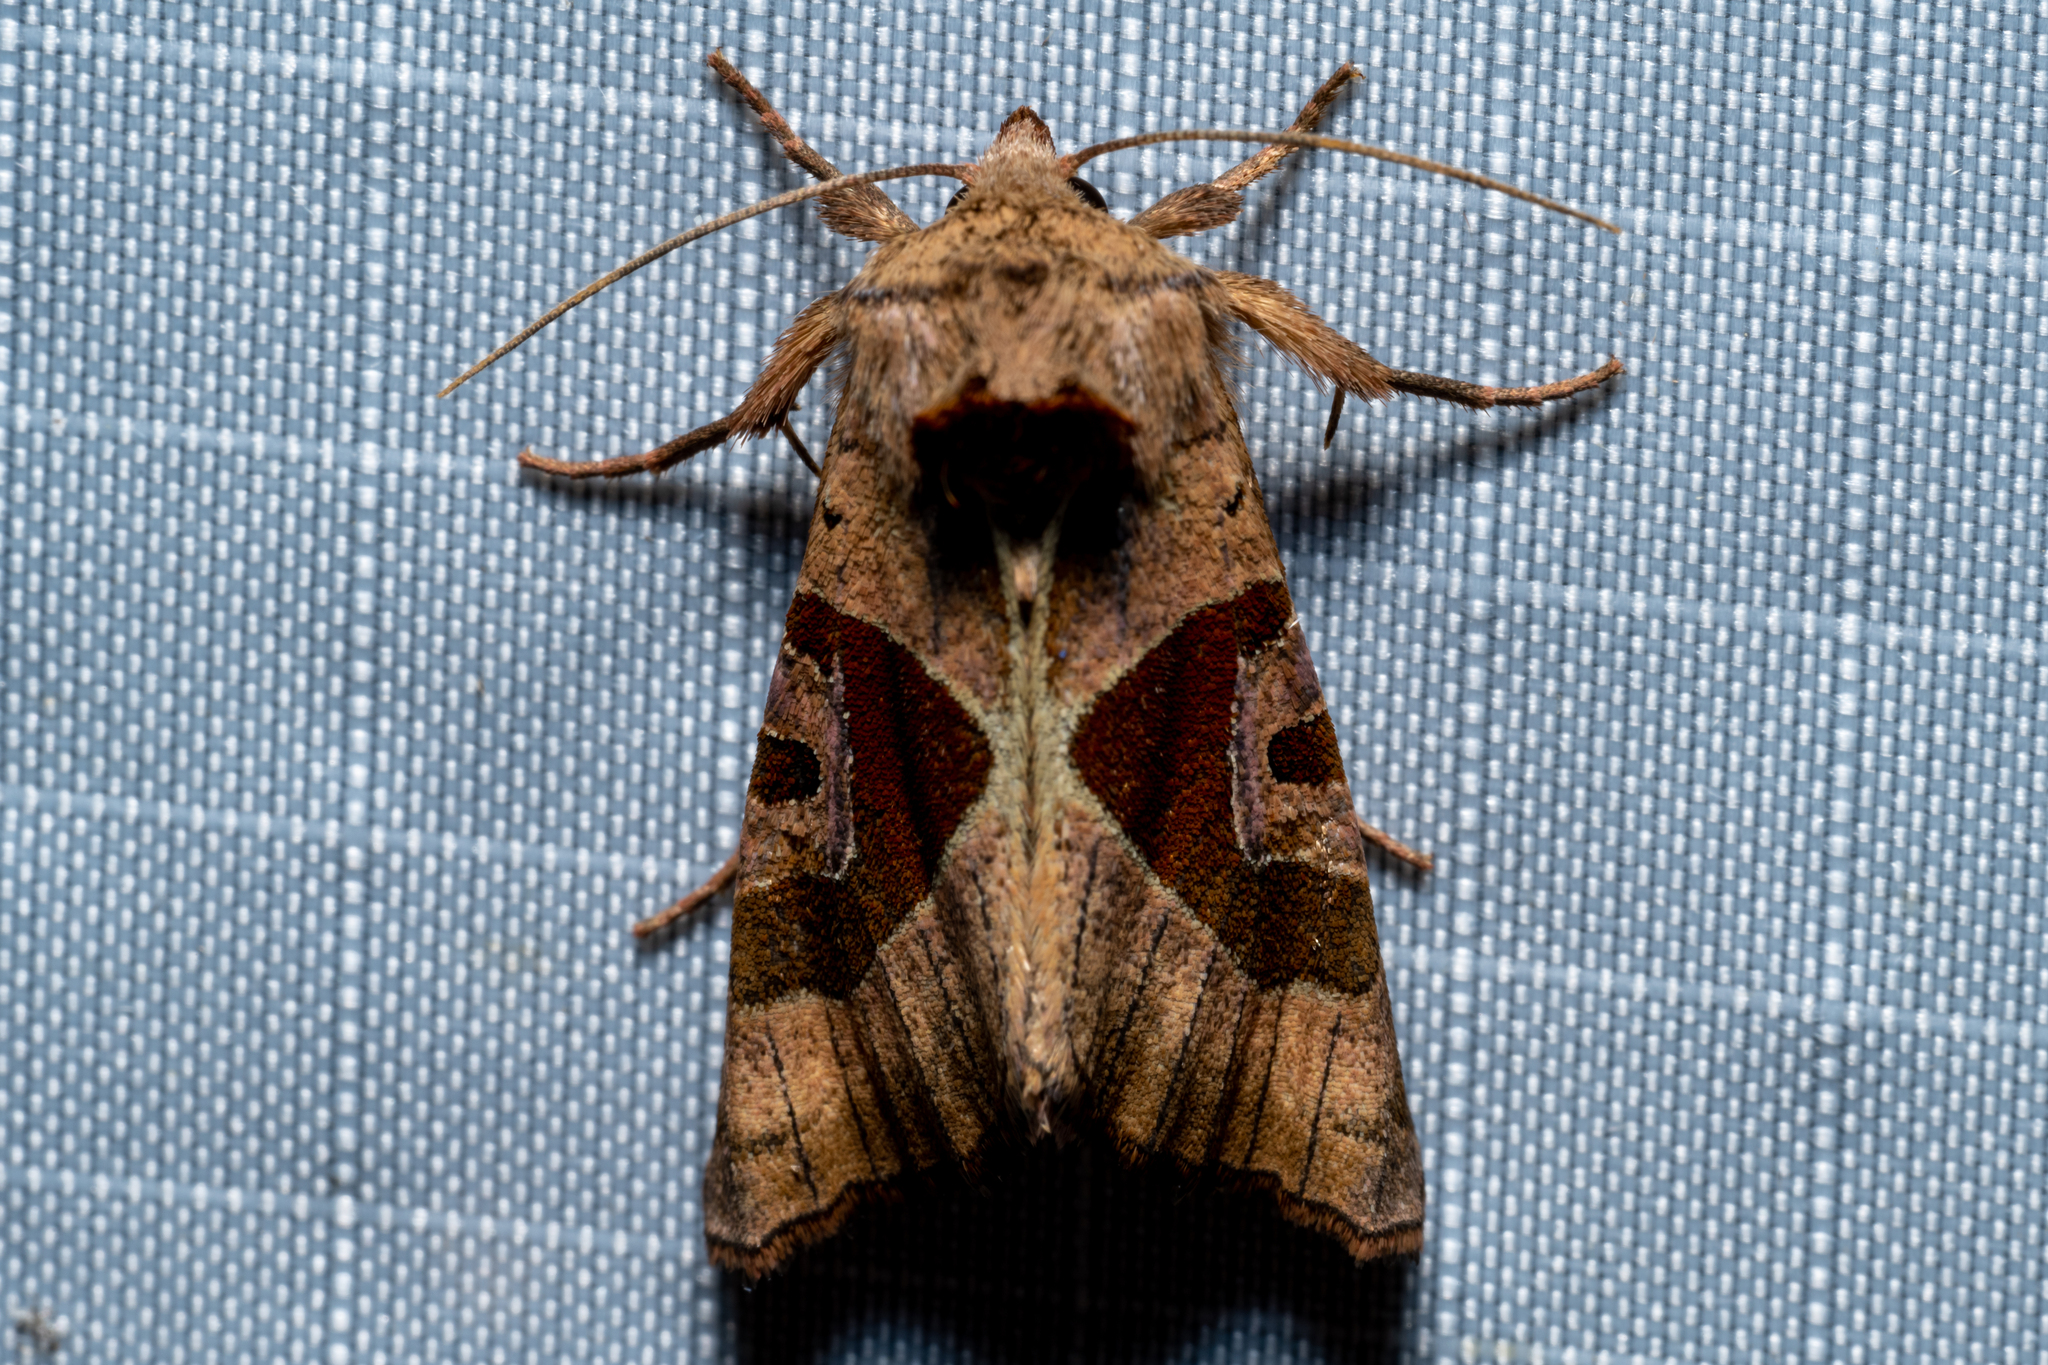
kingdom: Animalia
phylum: Arthropoda
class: Insecta
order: Lepidoptera
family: Noctuidae
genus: Conservula
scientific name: Conservula anodonta
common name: Sharp angle shades
